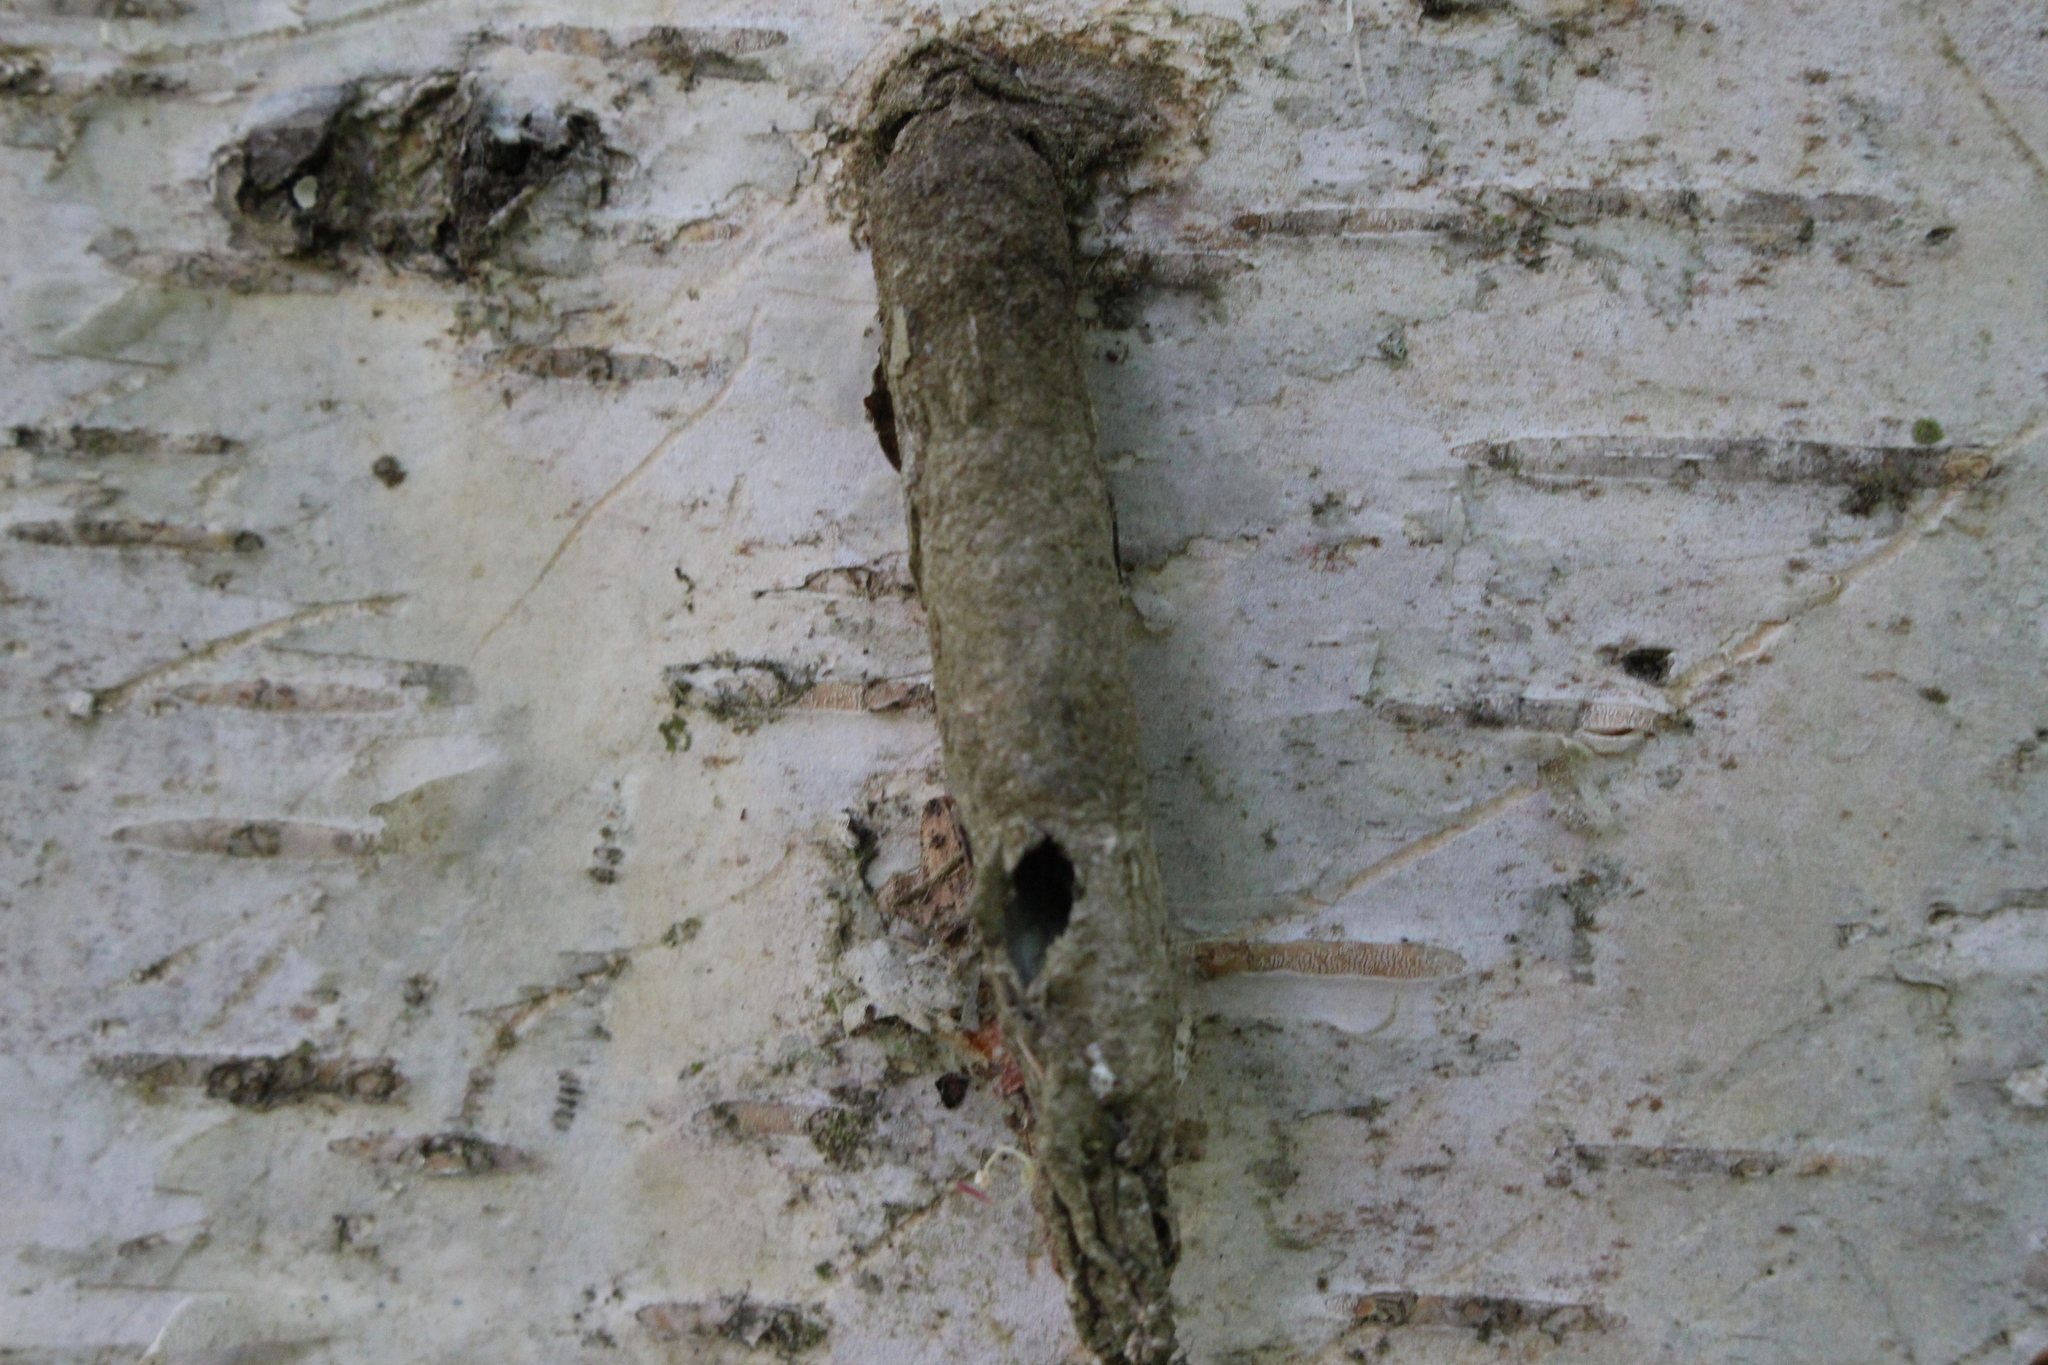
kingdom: Animalia
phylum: Arthropoda
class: Insecta
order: Lepidoptera
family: Psychidae
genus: Liothula
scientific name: Liothula omnivora
